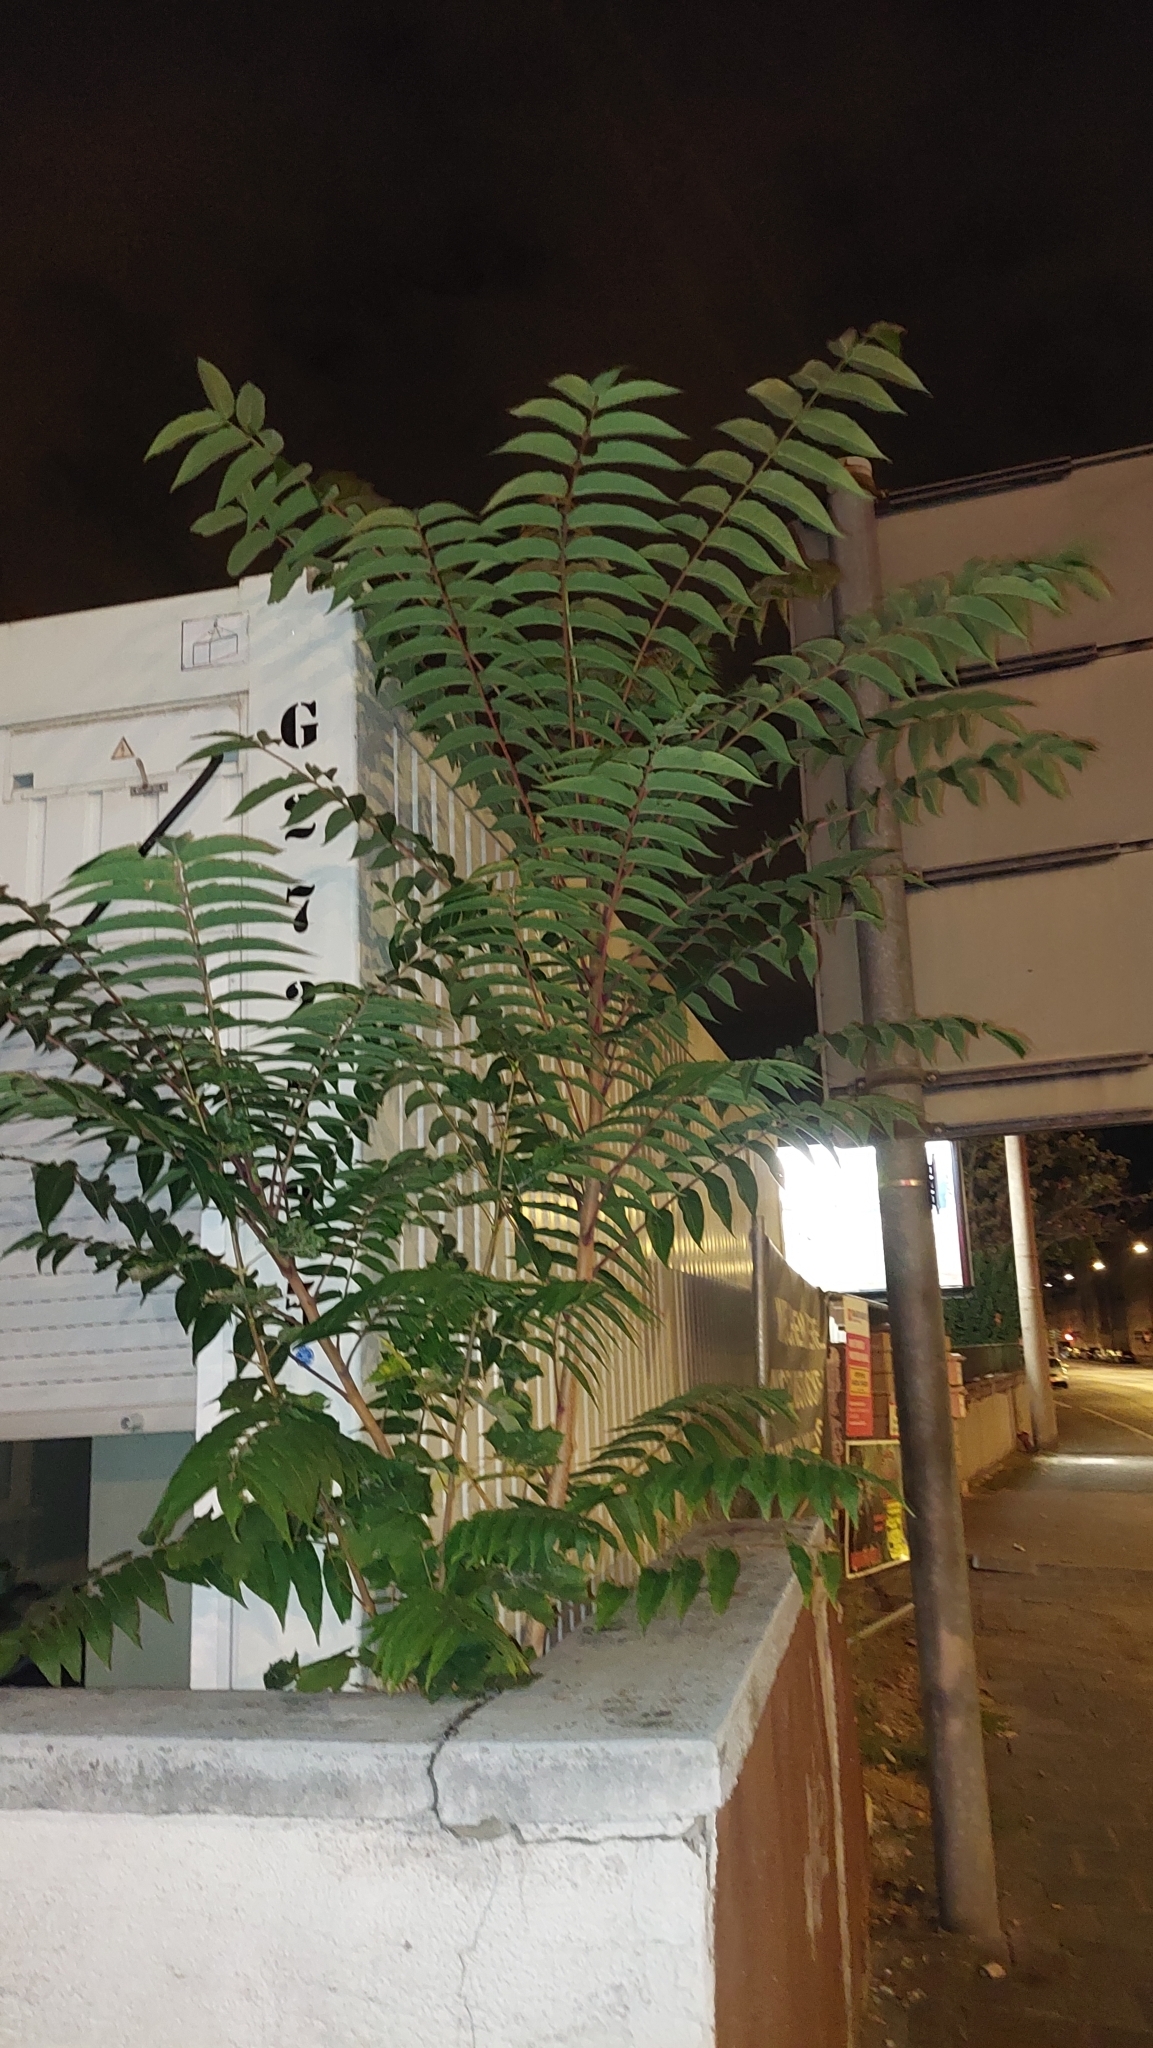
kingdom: Plantae
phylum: Tracheophyta
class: Magnoliopsida
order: Sapindales
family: Simaroubaceae
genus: Ailanthus
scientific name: Ailanthus altissima
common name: Tree-of-heaven
